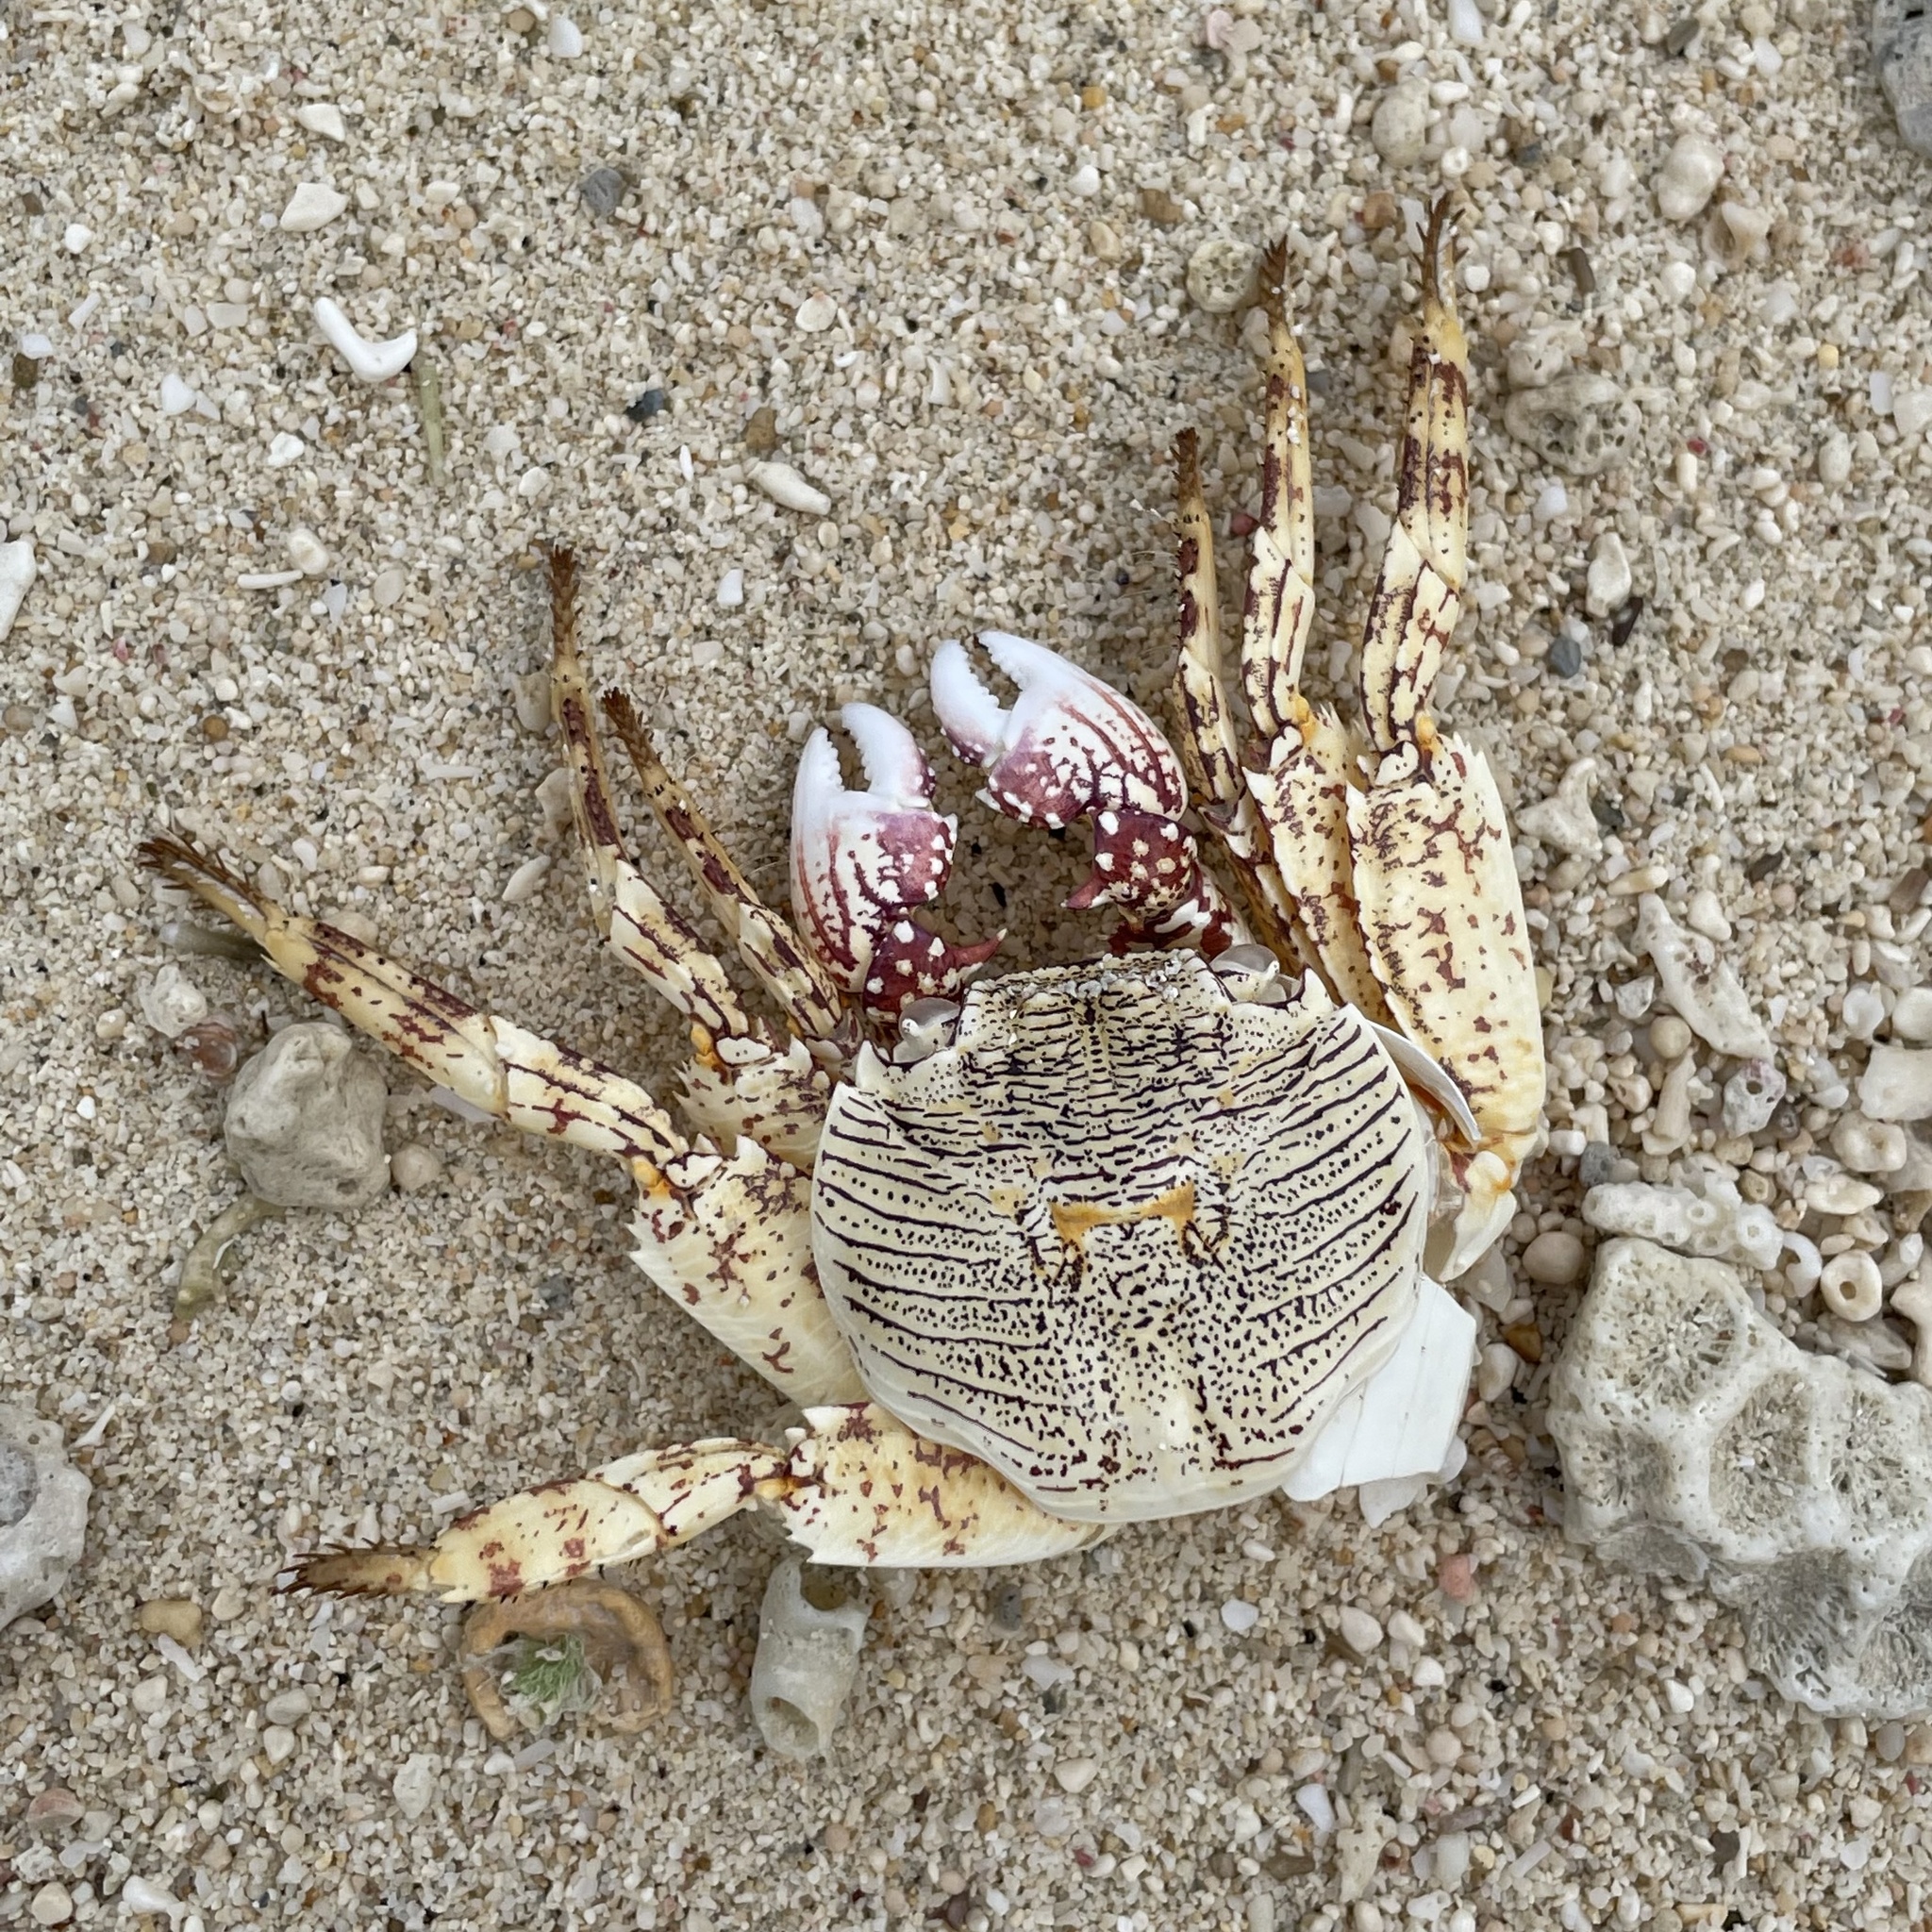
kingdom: Animalia
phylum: Arthropoda
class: Malacostraca
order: Decapoda
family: Grapsidae
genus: Grapsus
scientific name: Grapsus albolineatus
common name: Mottled lightfoot crab
